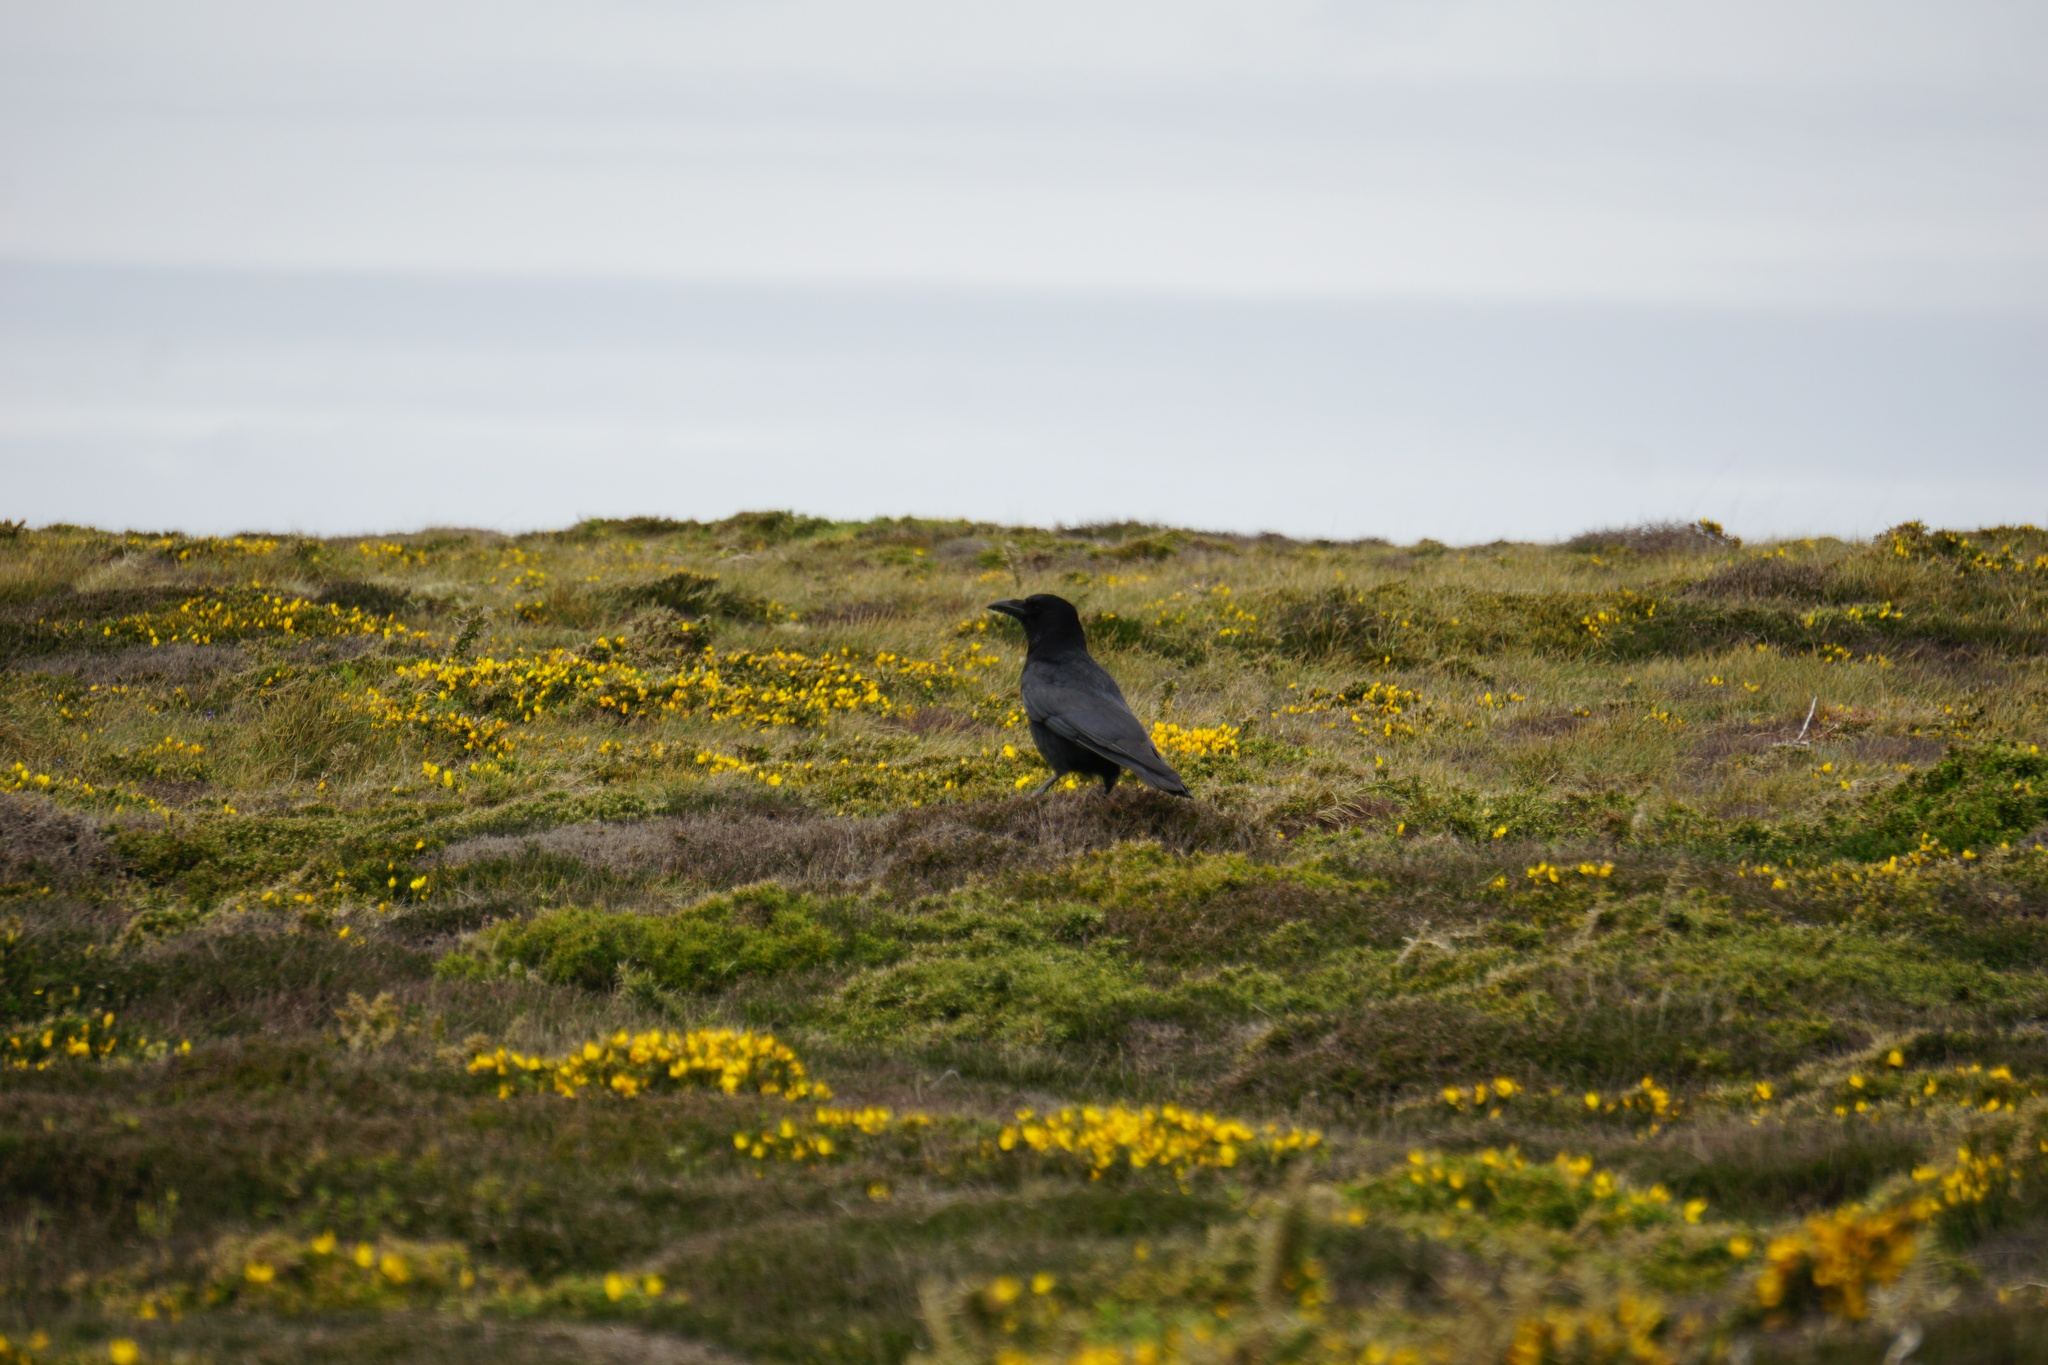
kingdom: Animalia
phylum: Chordata
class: Aves
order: Passeriformes
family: Corvidae
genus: Corvus
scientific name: Corvus corone
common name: Carrion crow
